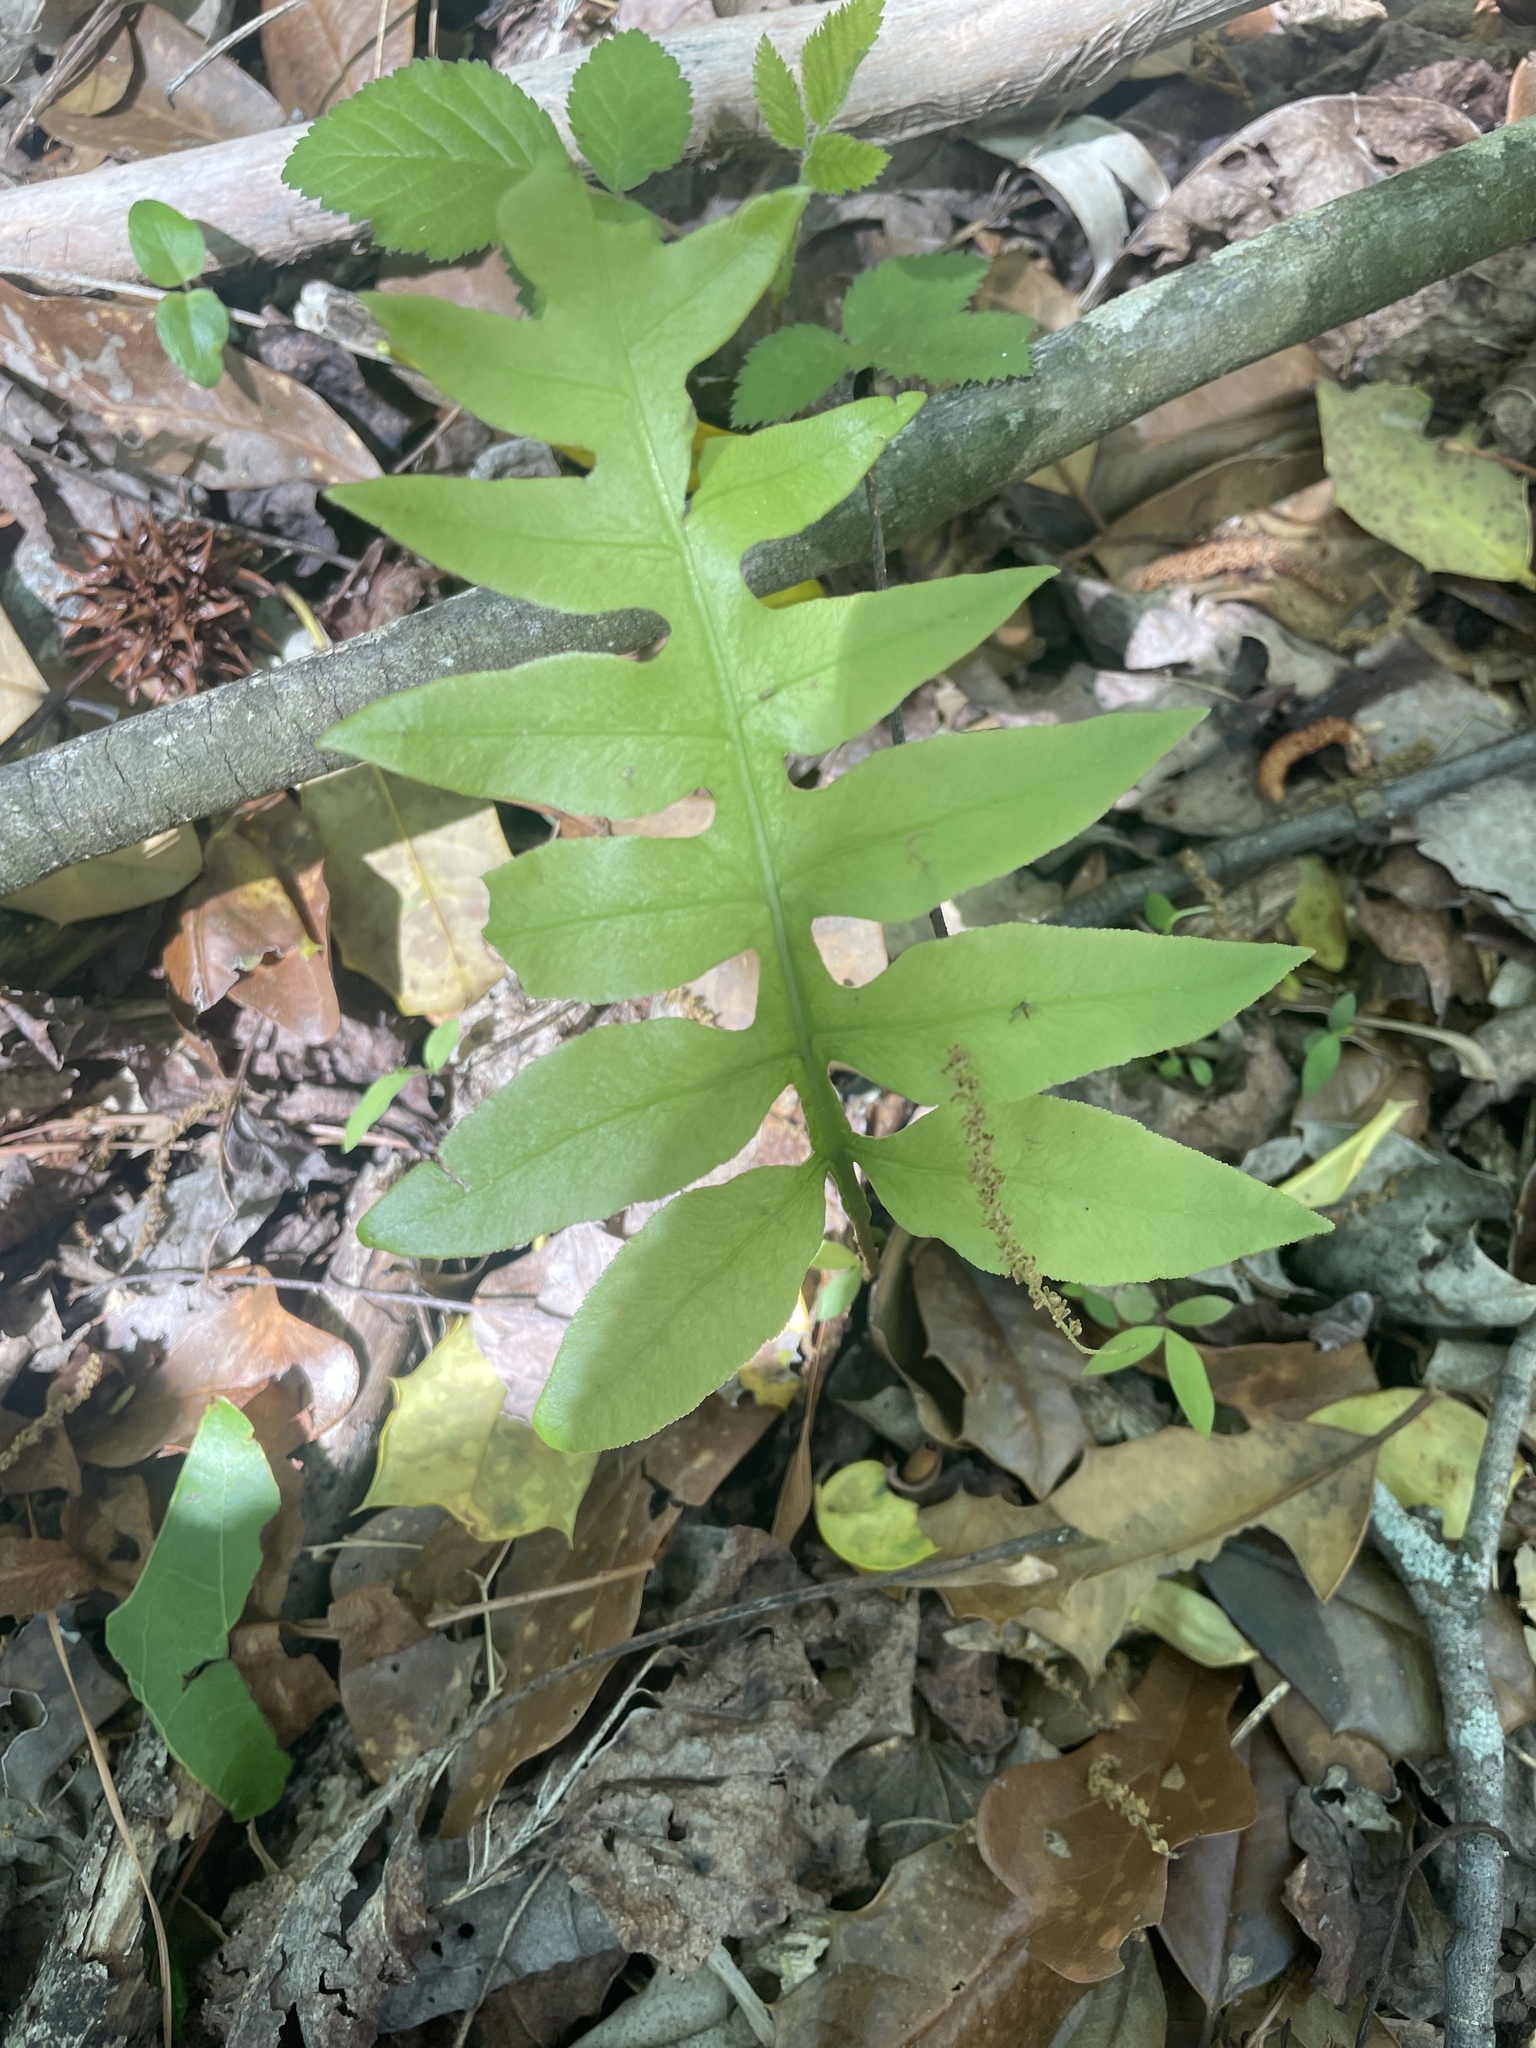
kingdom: Plantae
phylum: Tracheophyta
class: Polypodiopsida
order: Polypodiales
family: Blechnaceae
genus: Lorinseria
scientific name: Lorinseria areolata
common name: Dwarf chain fern
